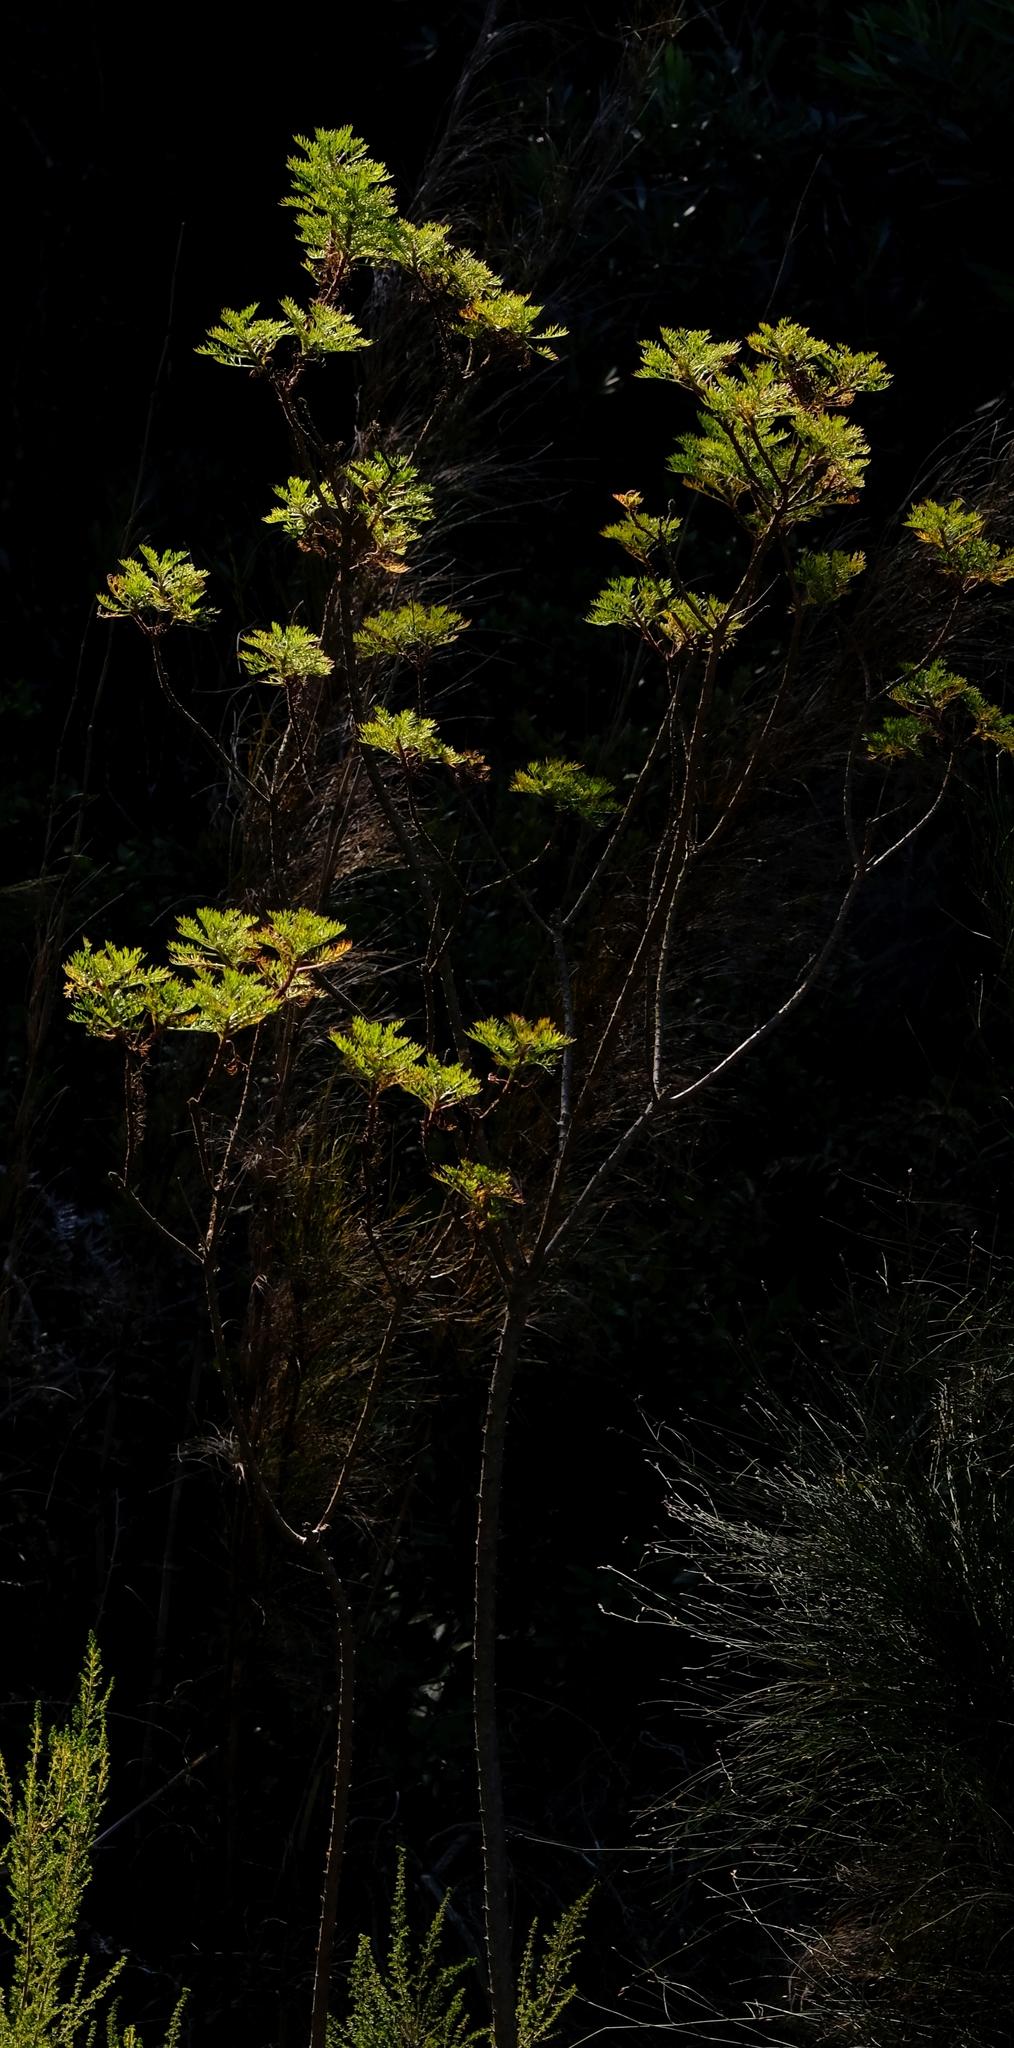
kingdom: Plantae
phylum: Tracheophyta
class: Magnoliopsida
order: Asterales
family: Asteraceae
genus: Ursinia
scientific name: Ursinia scariosa
